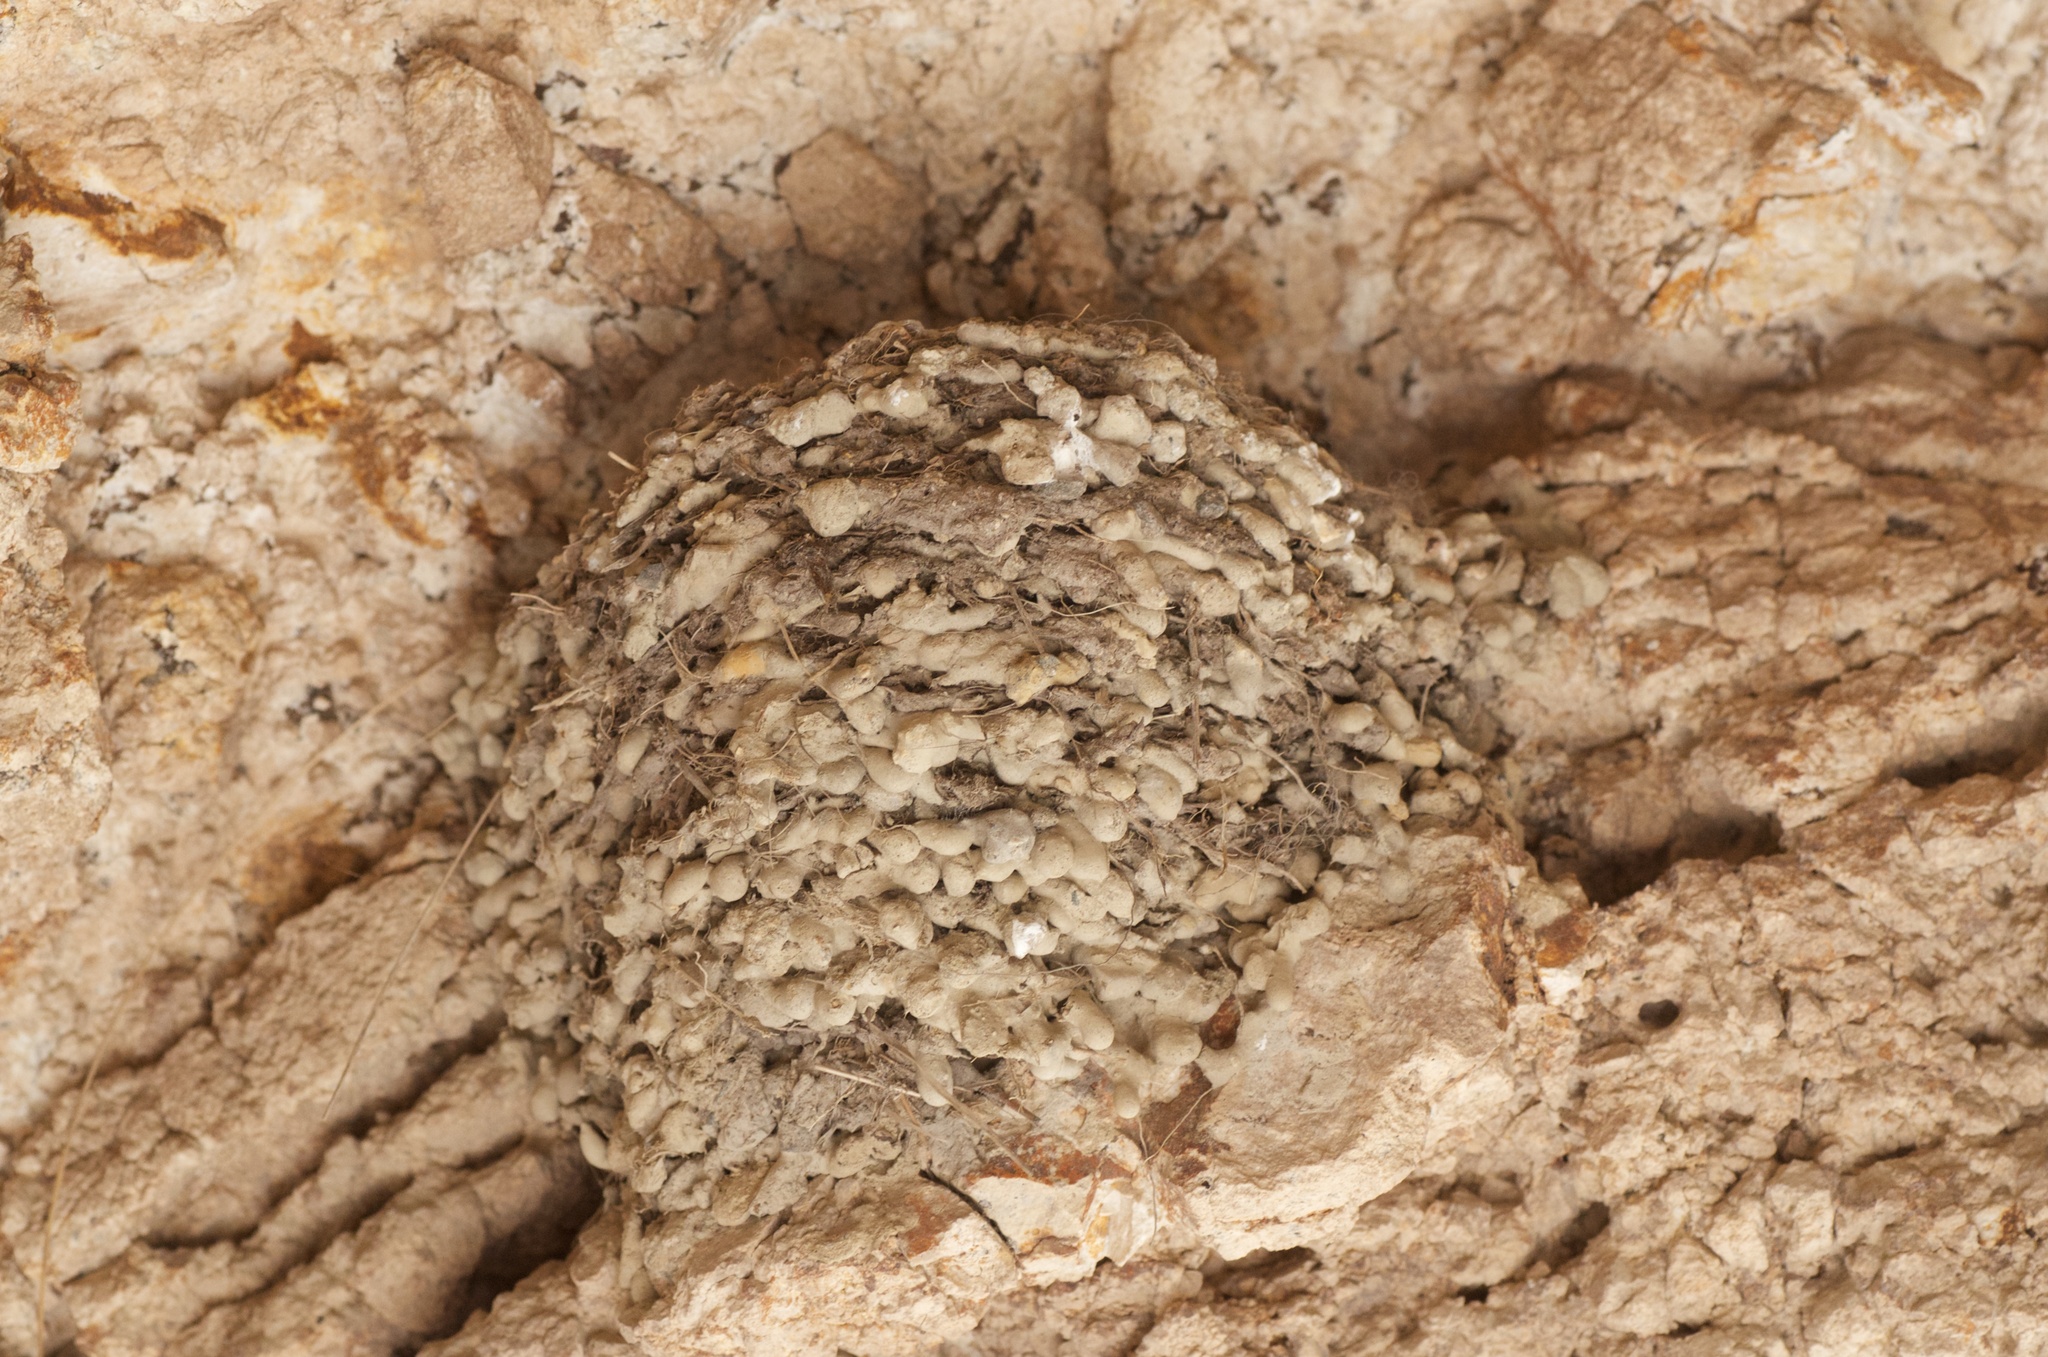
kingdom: Animalia
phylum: Chordata
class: Aves
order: Passeriformes
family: Hirundinidae
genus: Hirundo
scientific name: Hirundo neoxena
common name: Welcome swallow
